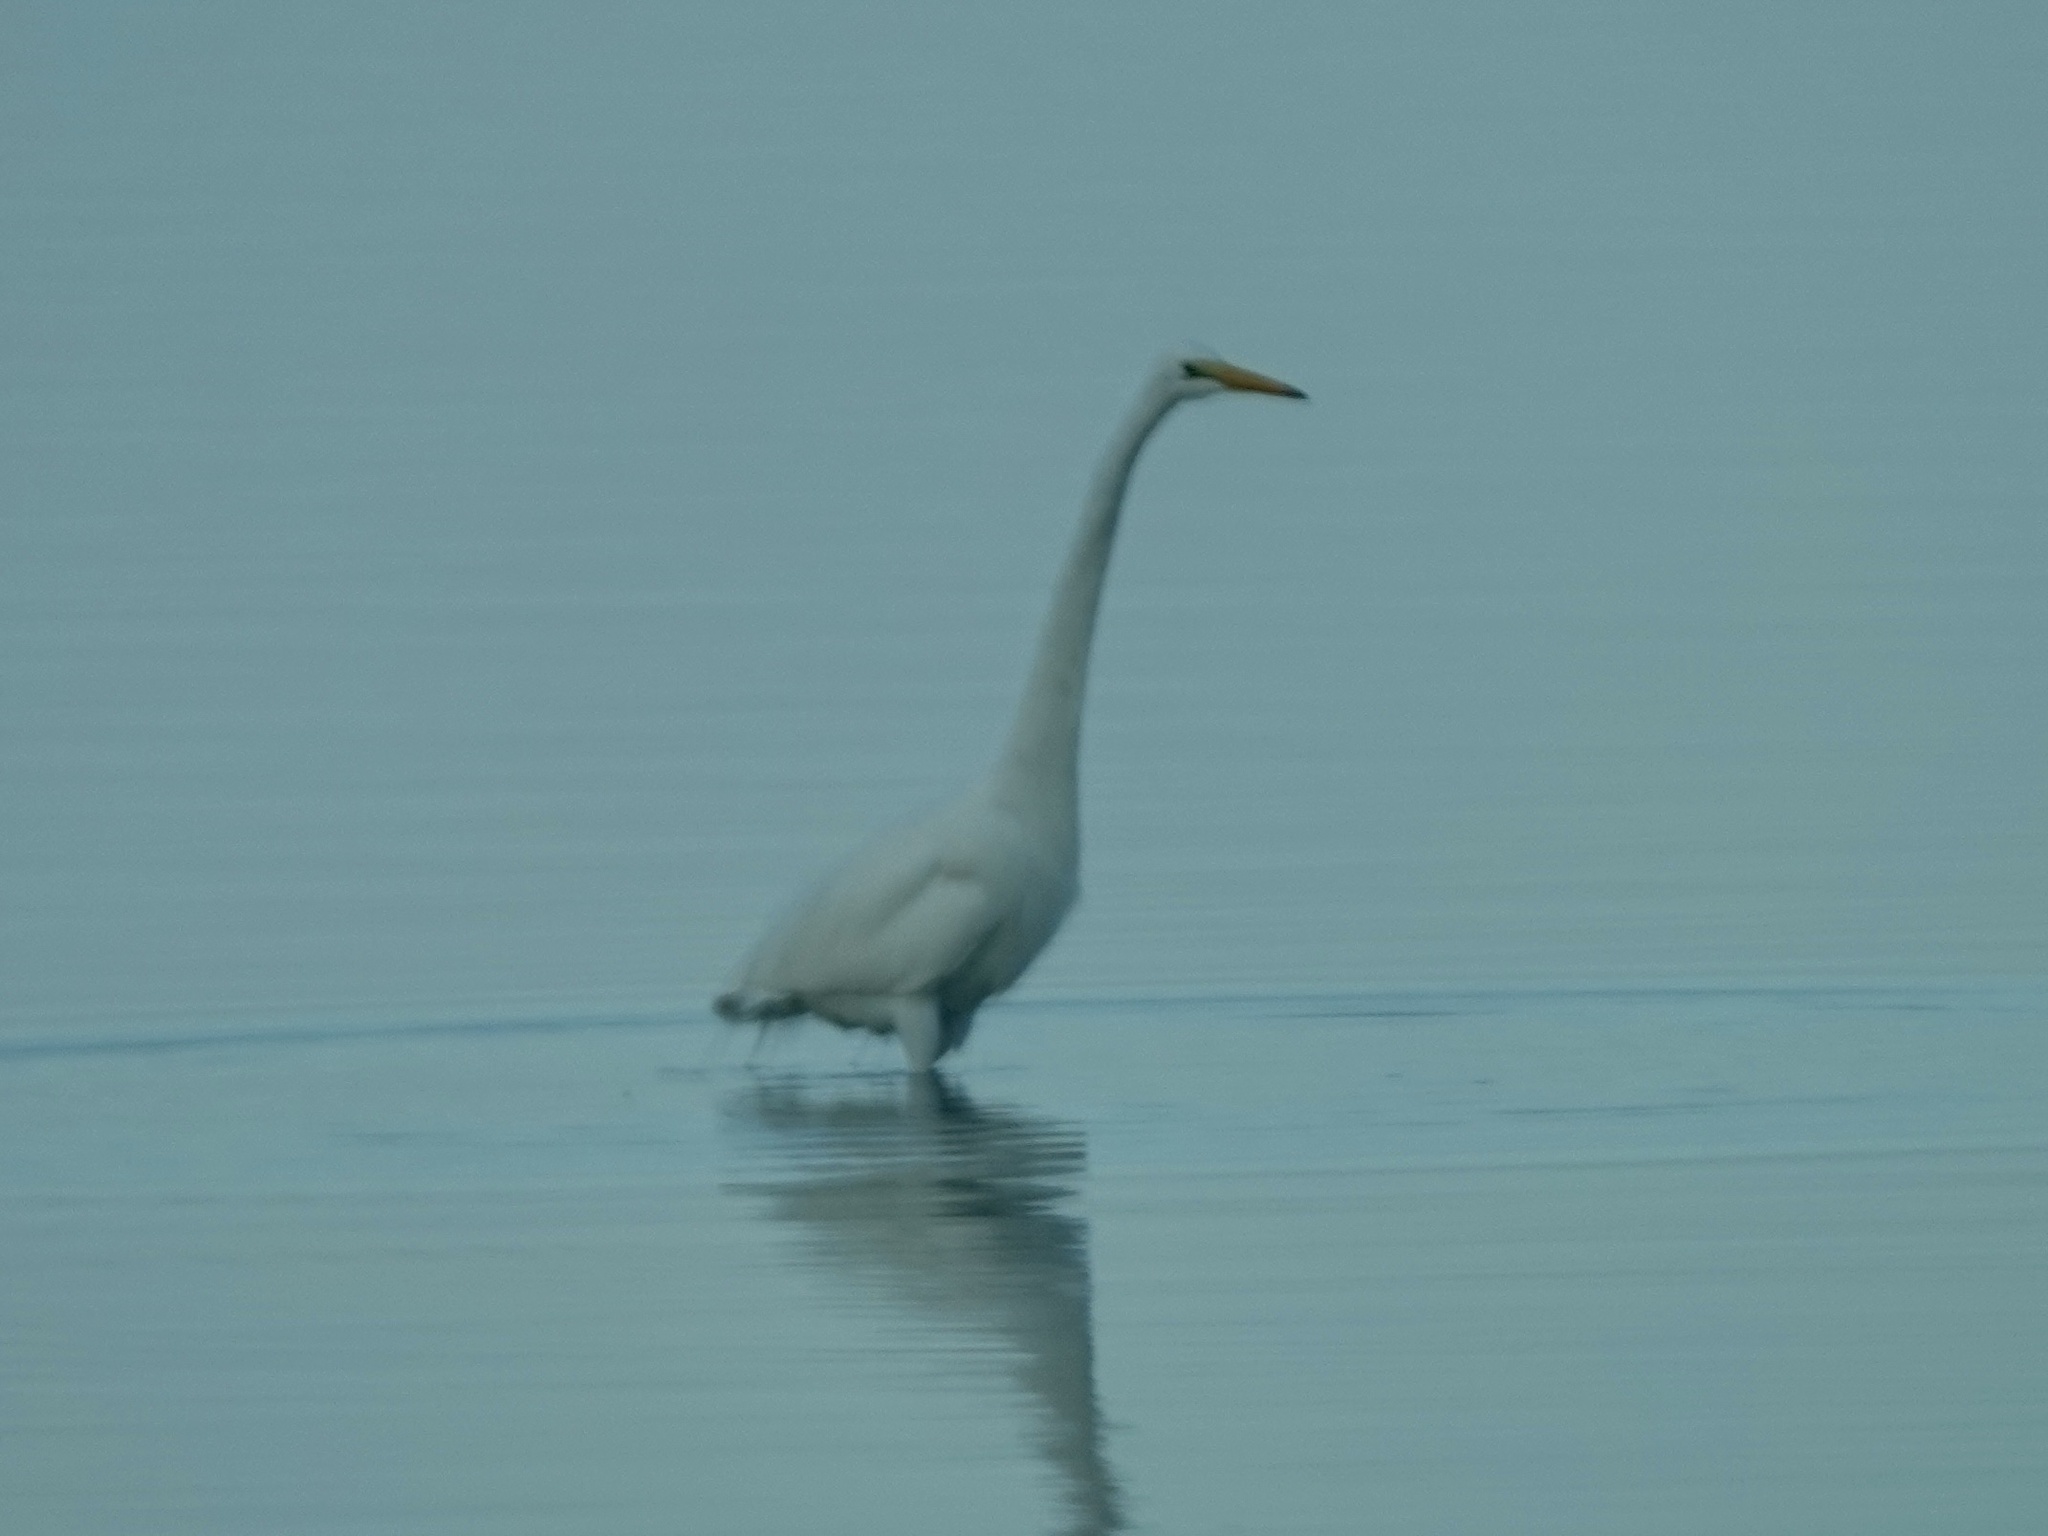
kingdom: Animalia
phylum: Chordata
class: Aves
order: Pelecaniformes
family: Ardeidae
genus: Ardea
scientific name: Ardea alba
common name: Great egret
